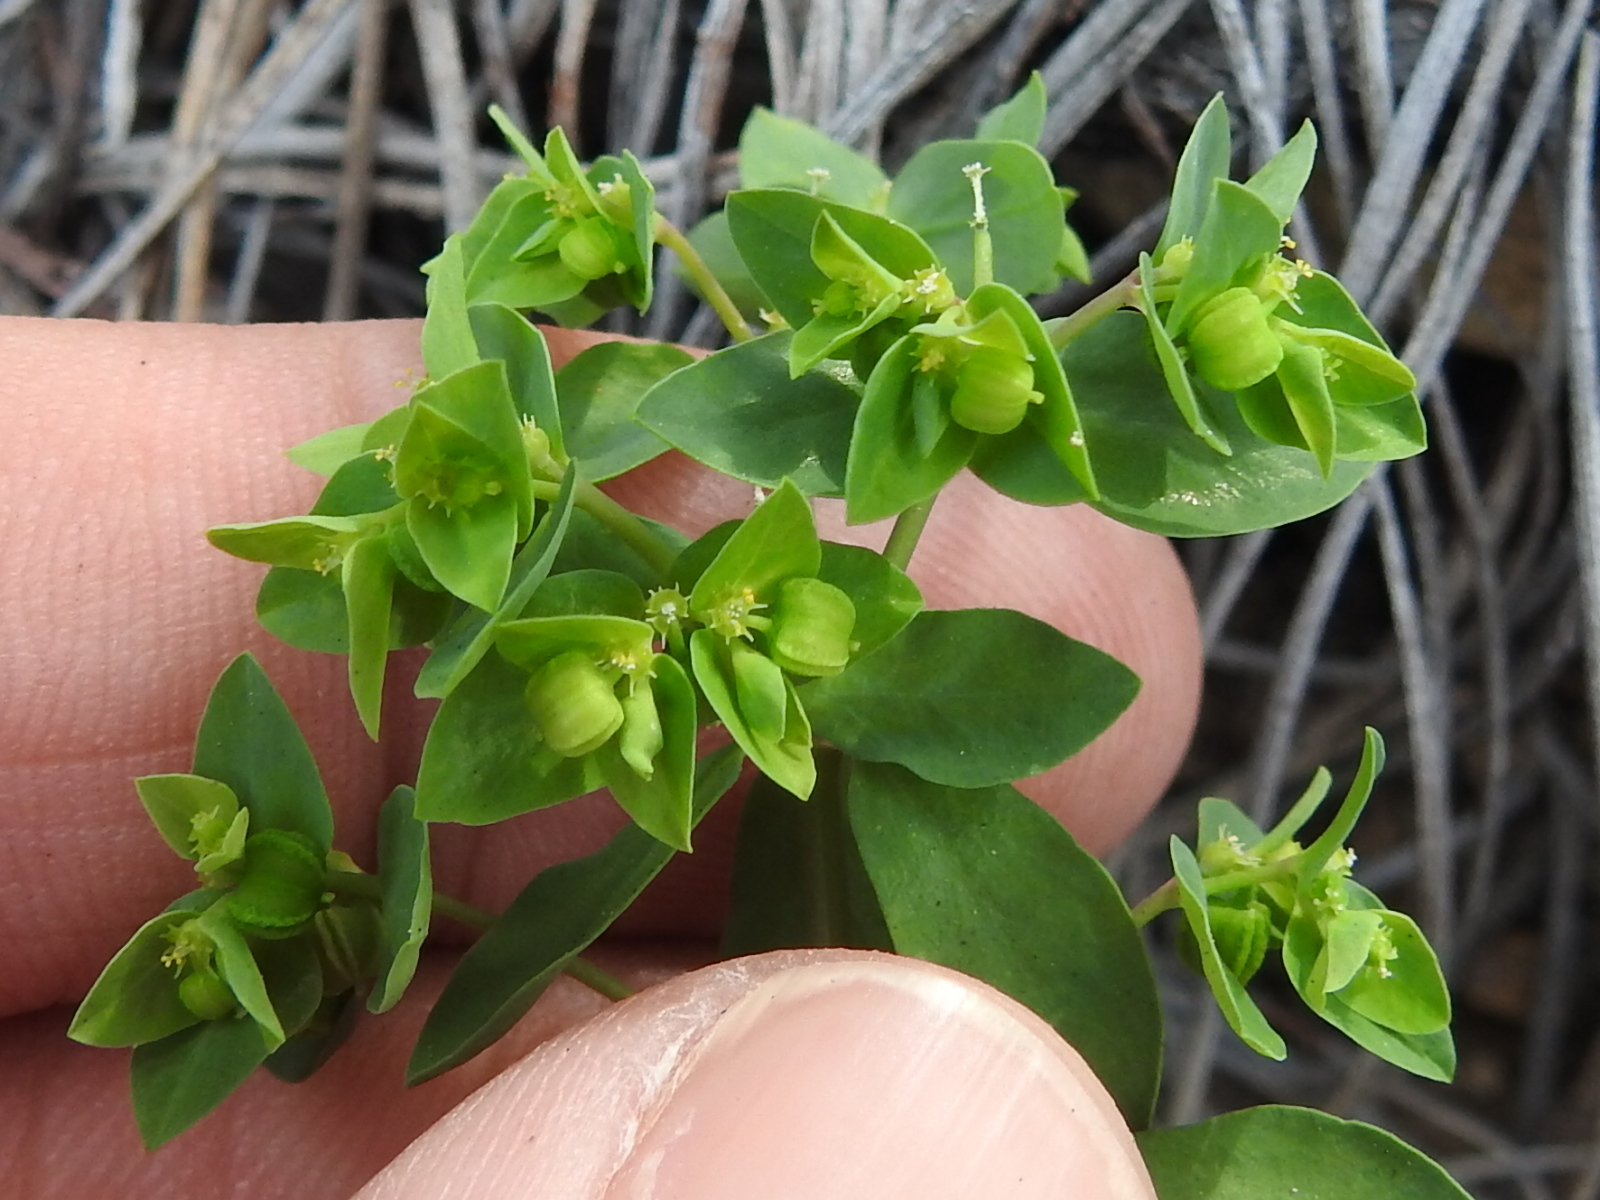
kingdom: Plantae
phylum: Tracheophyta
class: Magnoliopsida
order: Malpighiales
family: Euphorbiaceae
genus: Euphorbia
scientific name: Euphorbia peplus
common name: Petty spurge
